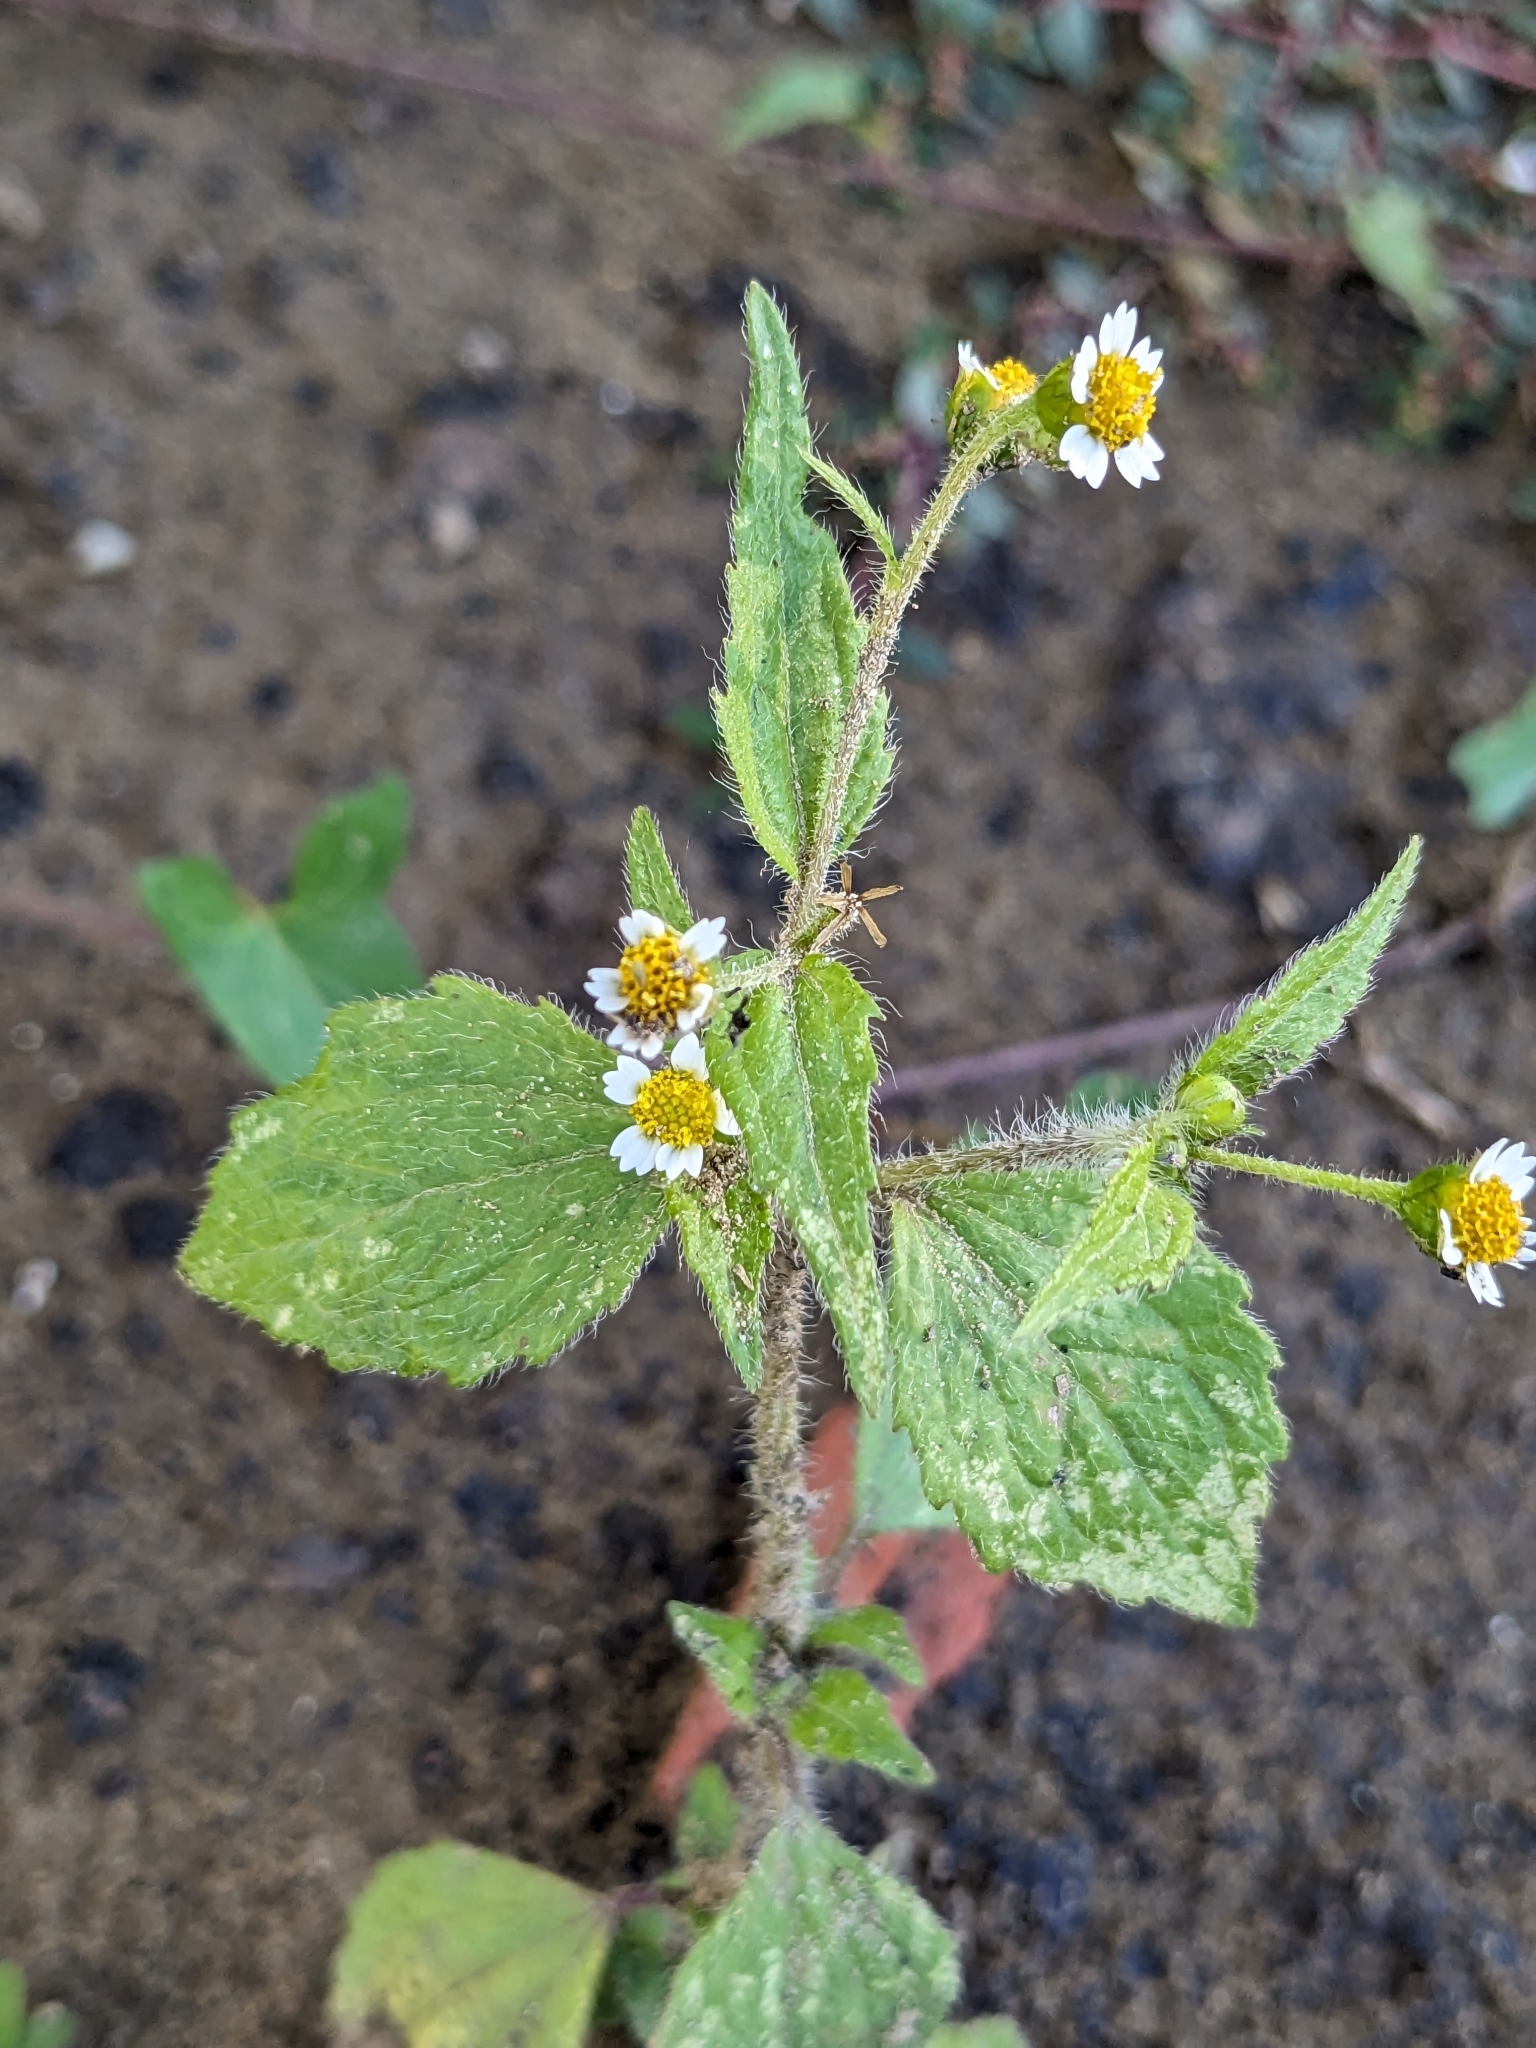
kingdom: Plantae
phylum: Tracheophyta
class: Magnoliopsida
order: Asterales
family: Asteraceae
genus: Galinsoga
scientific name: Galinsoga quadriradiata
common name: Shaggy soldier
